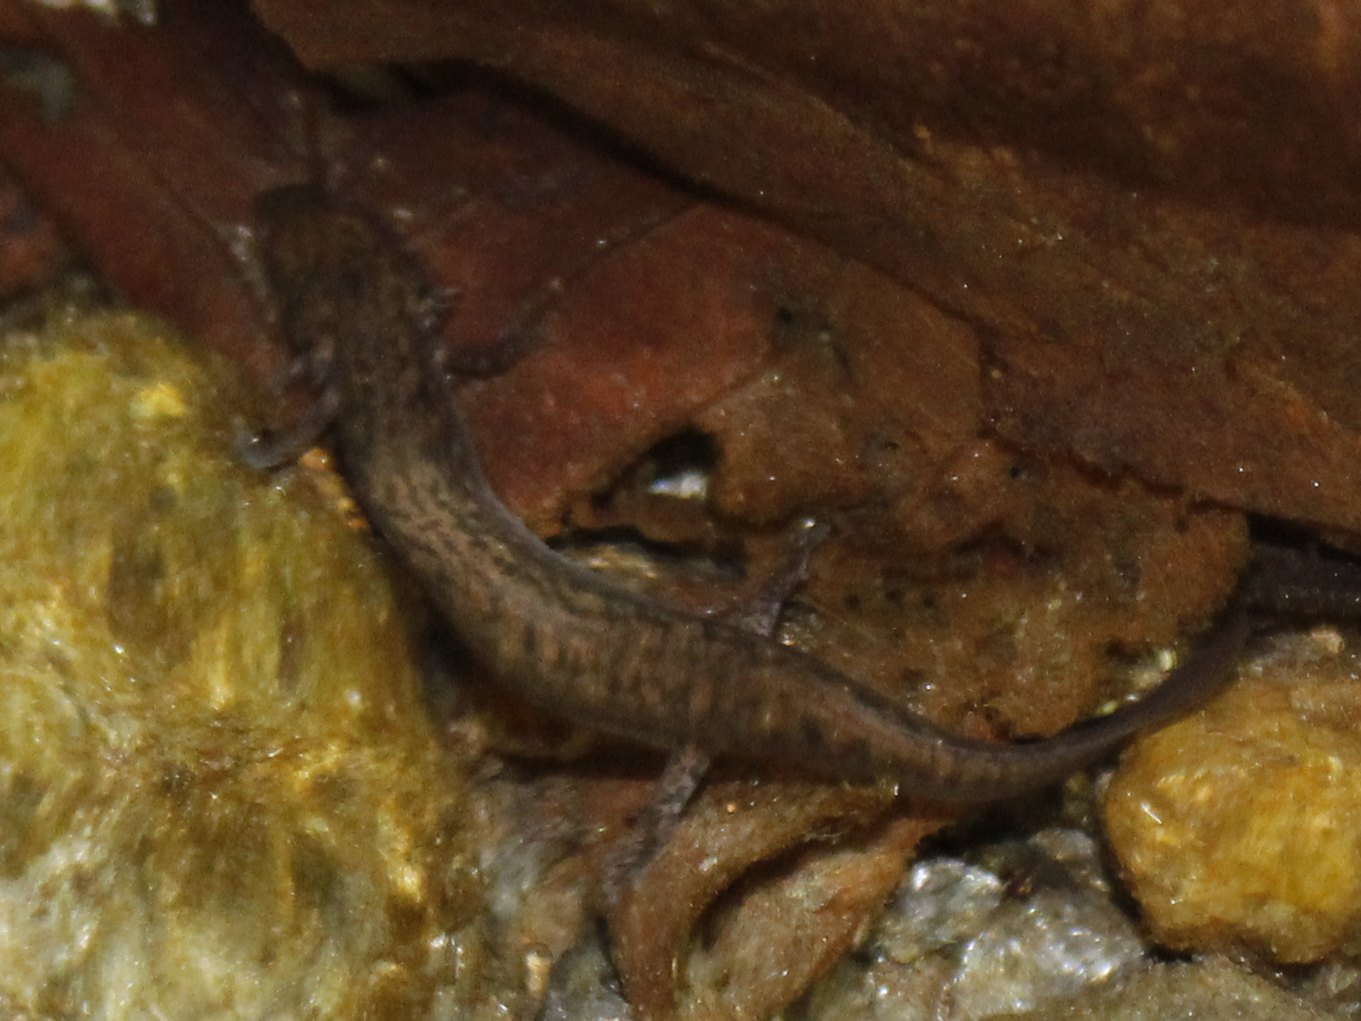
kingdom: Animalia
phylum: Chordata
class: Amphibia
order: Caudata
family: Plethodontidae
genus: Eurycea
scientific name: Eurycea bislineata
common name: Northern two-lined salamander
